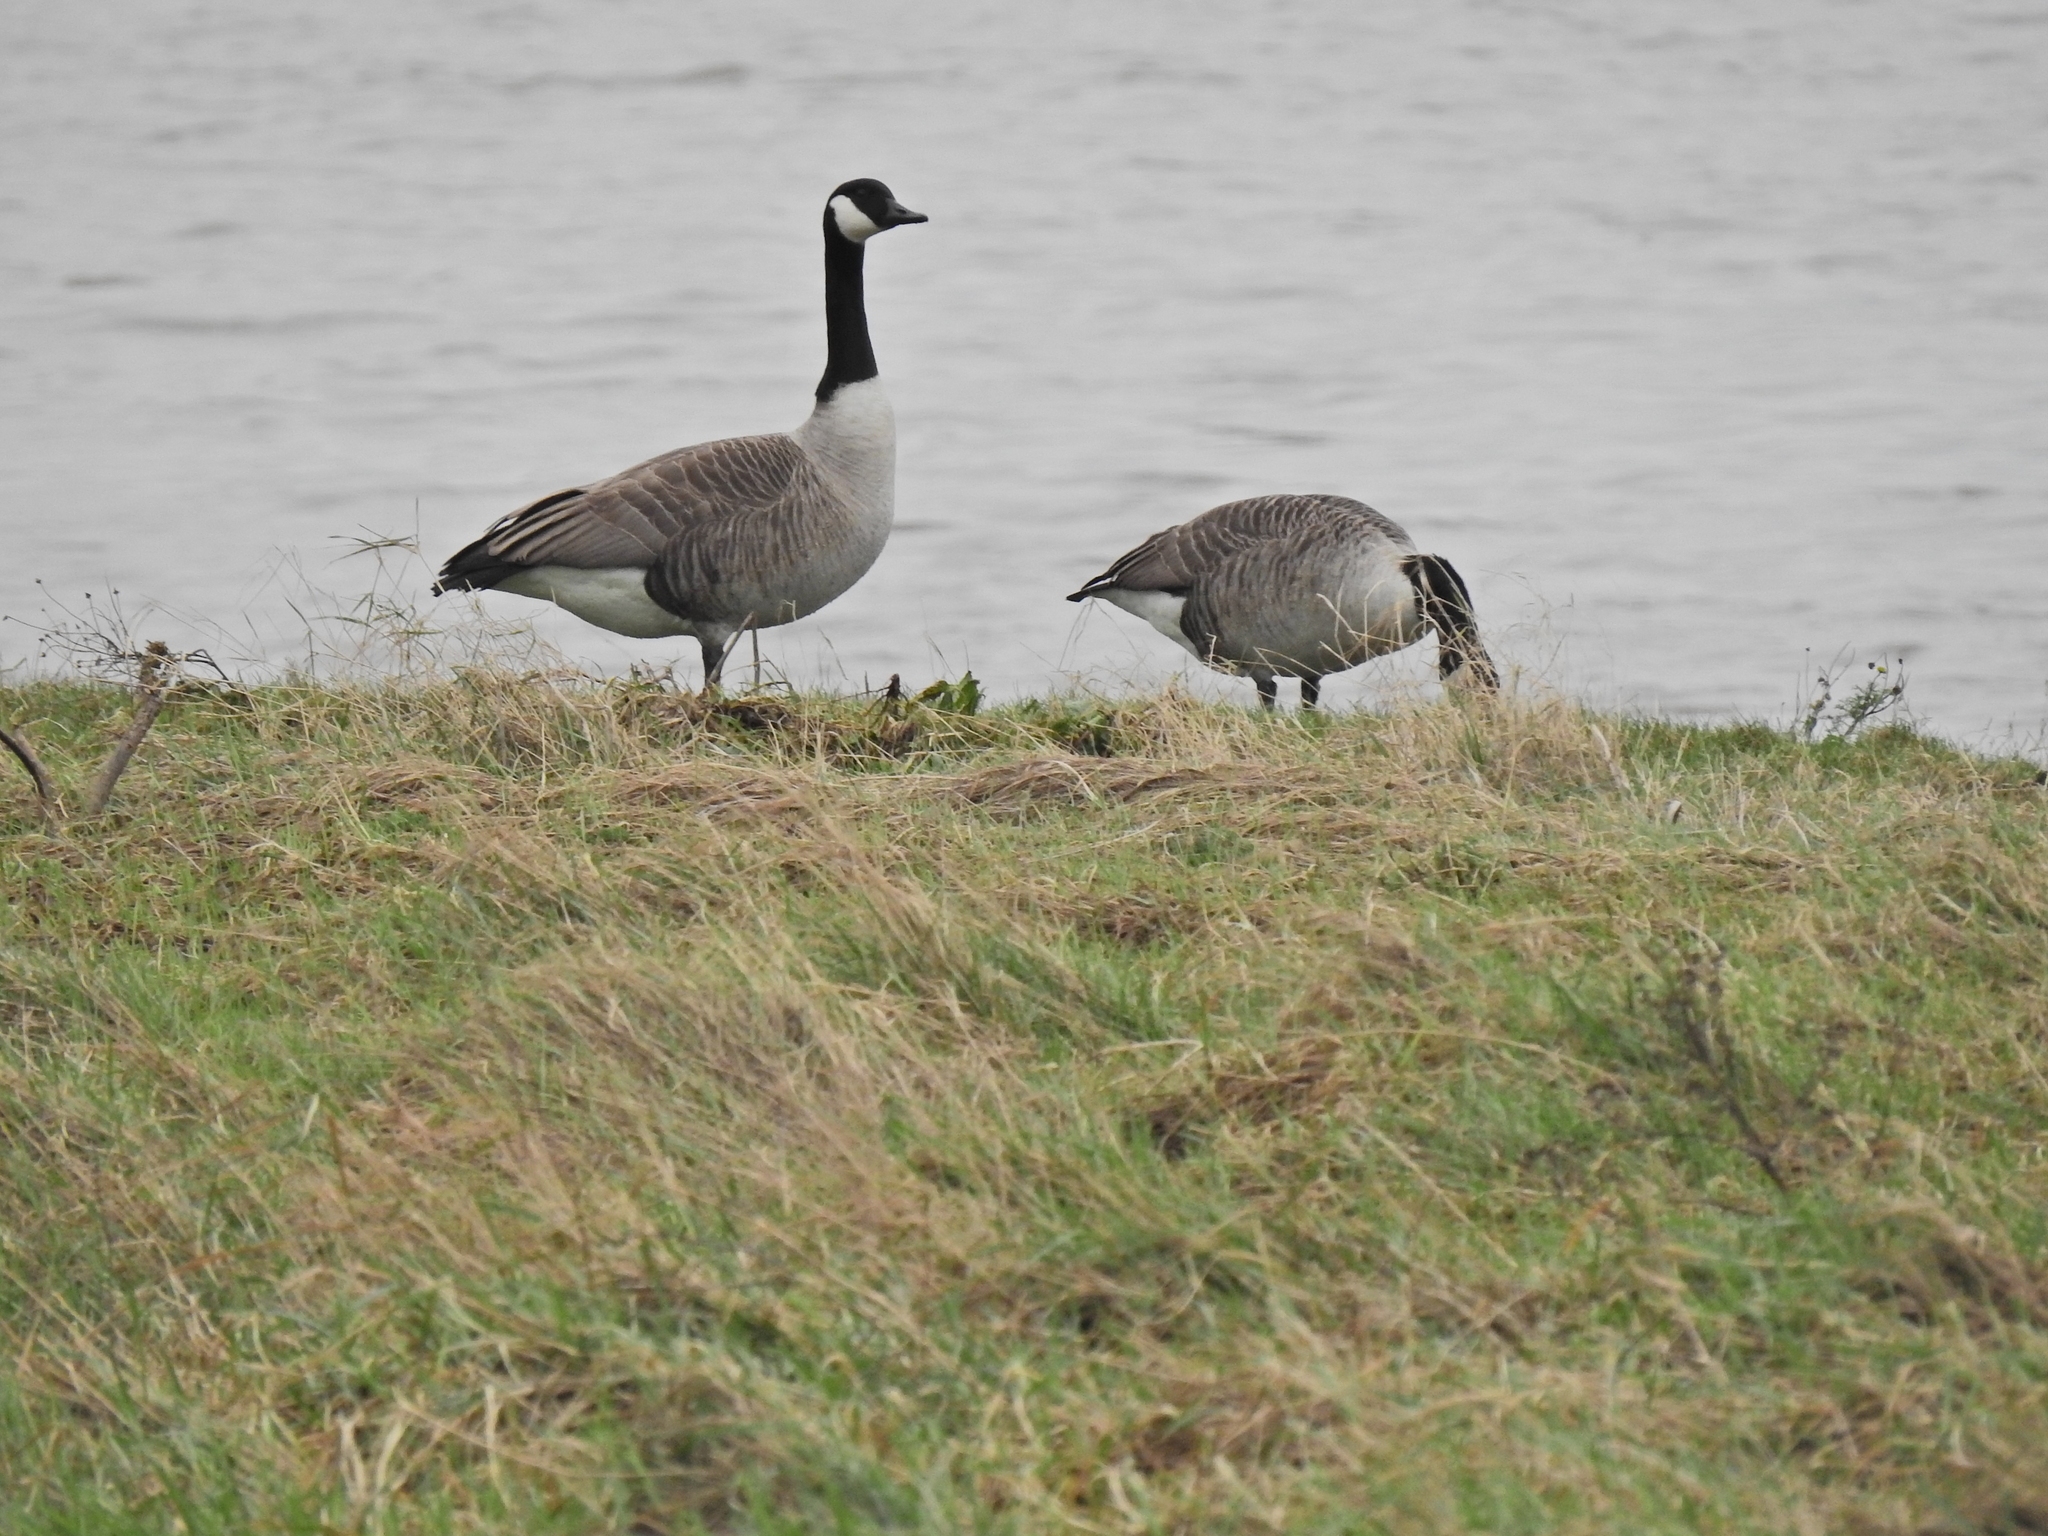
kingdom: Animalia
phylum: Chordata
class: Aves
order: Anseriformes
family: Anatidae
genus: Branta
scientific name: Branta canadensis
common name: Canada goose
